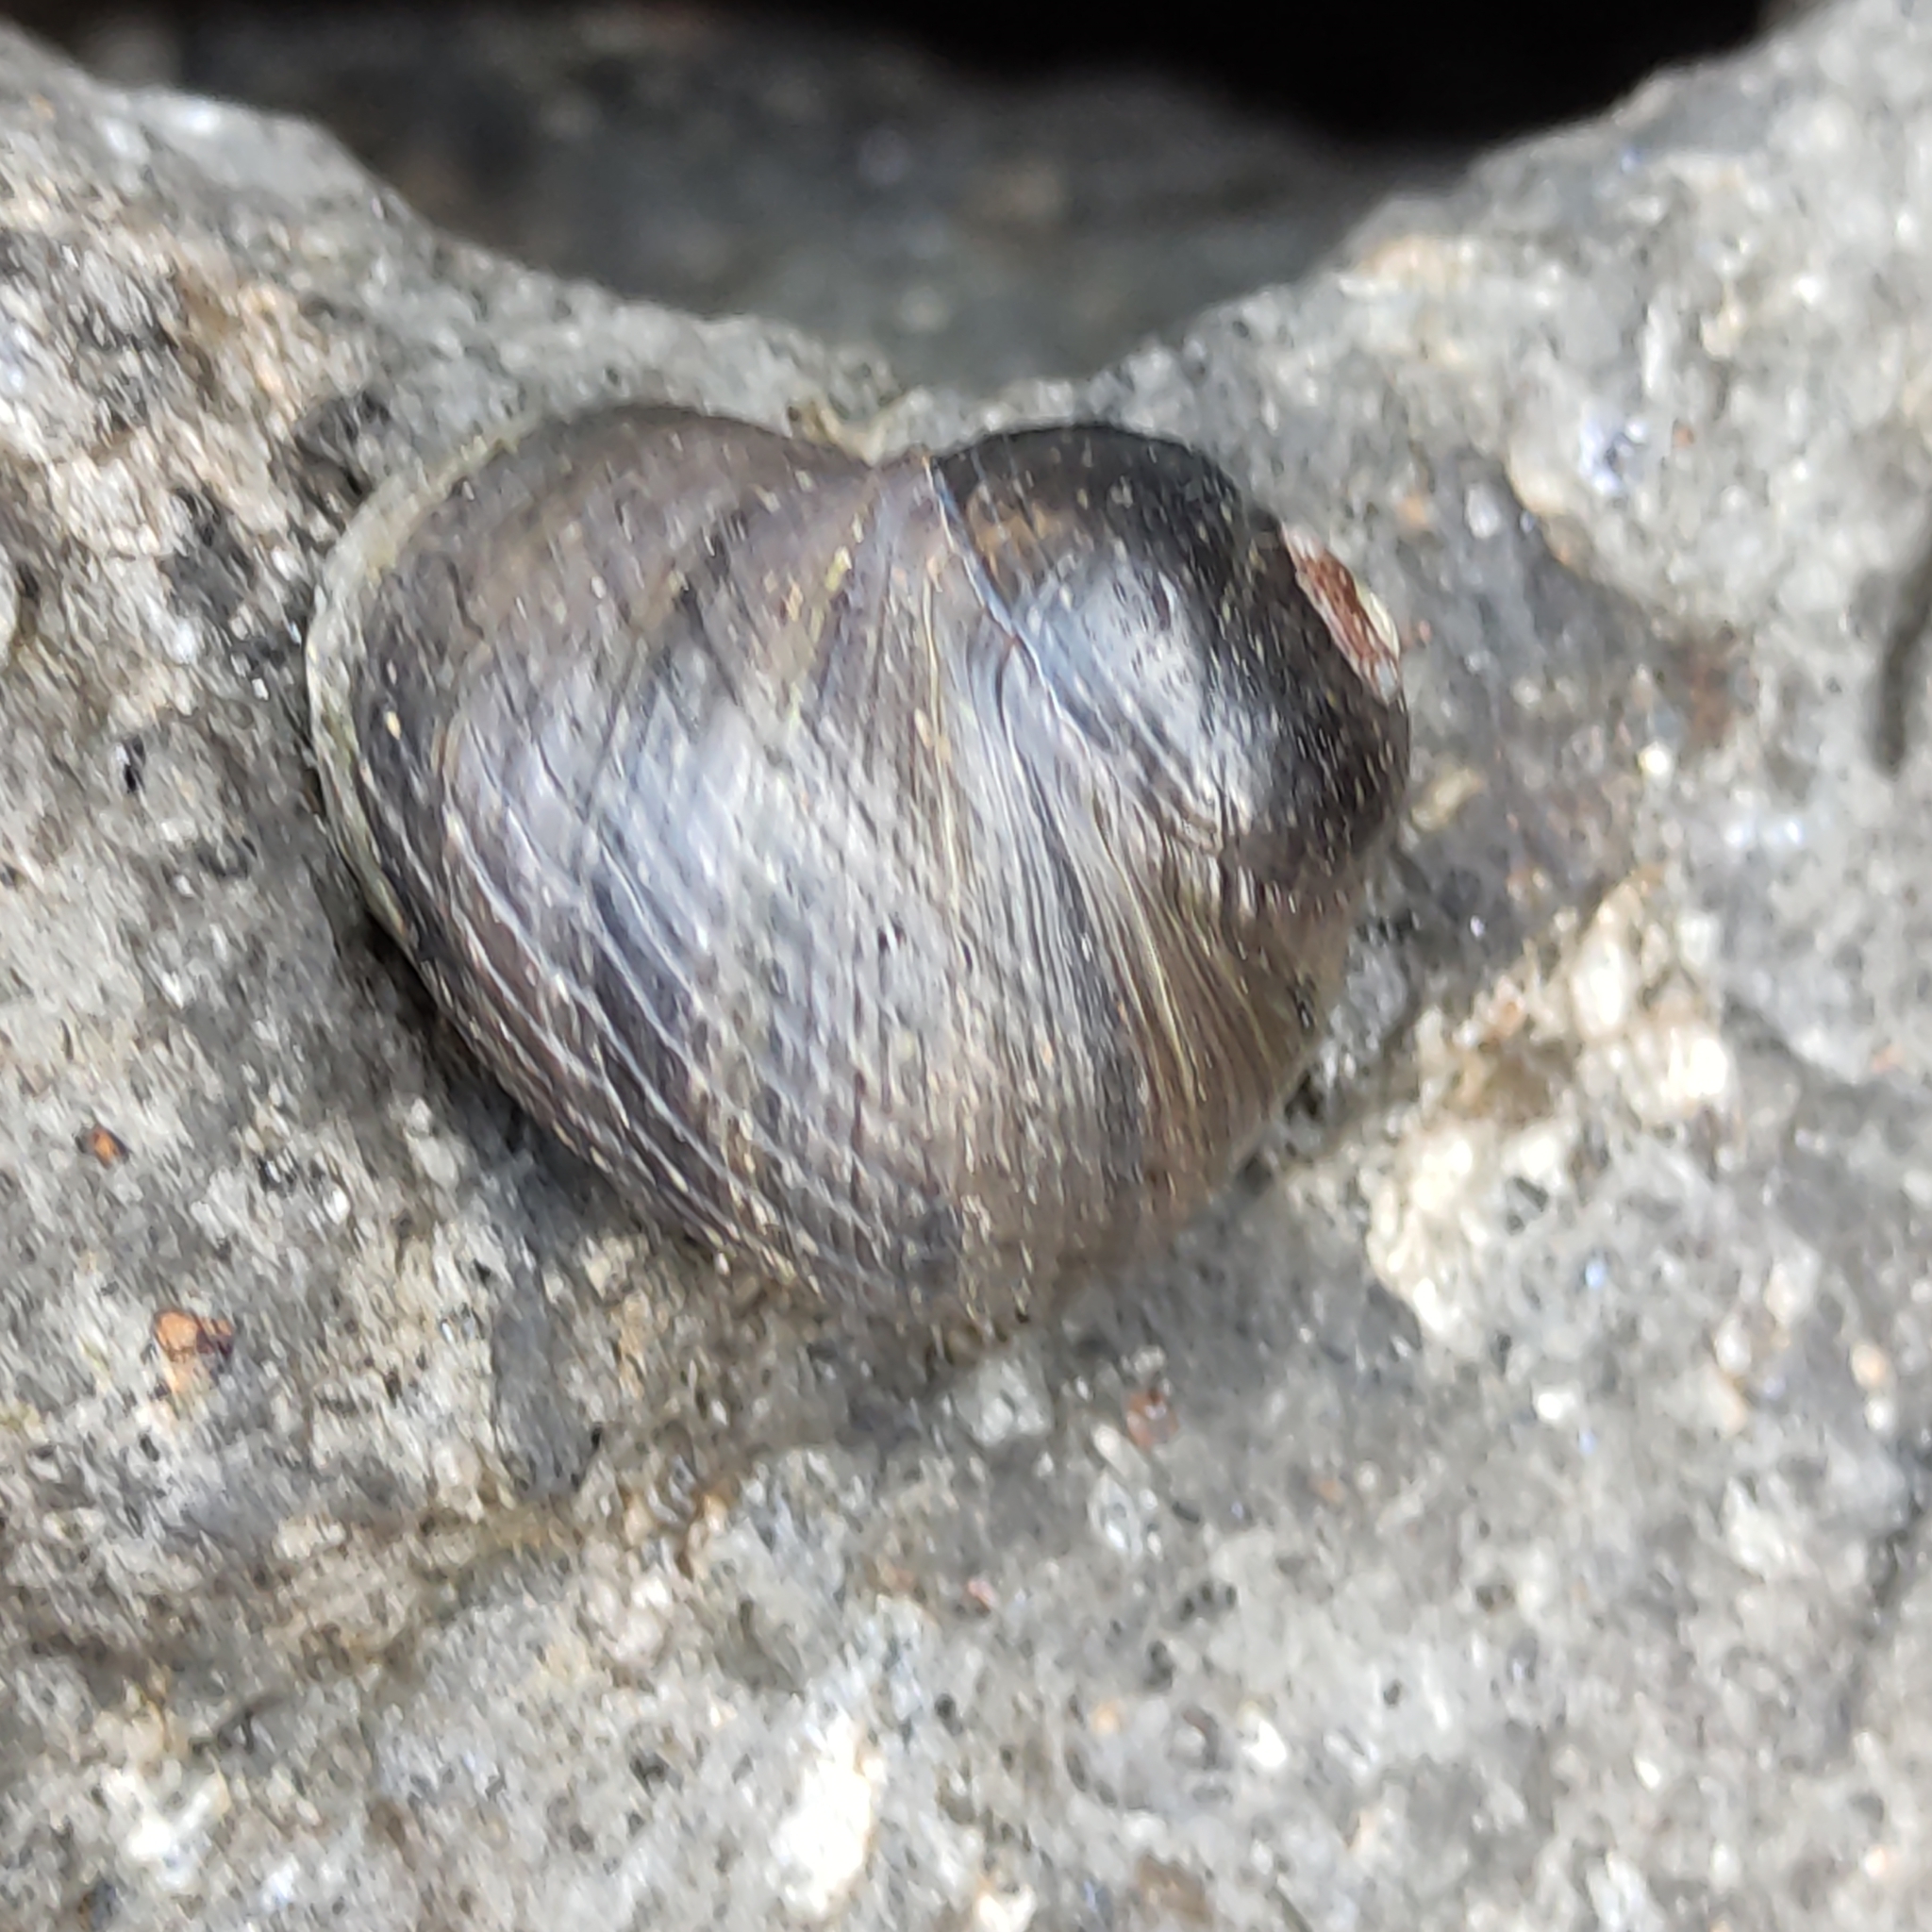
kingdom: Animalia
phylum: Mollusca
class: Gastropoda
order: Trochida
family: Trochidae
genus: Diloma
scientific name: Diloma zelandicum
